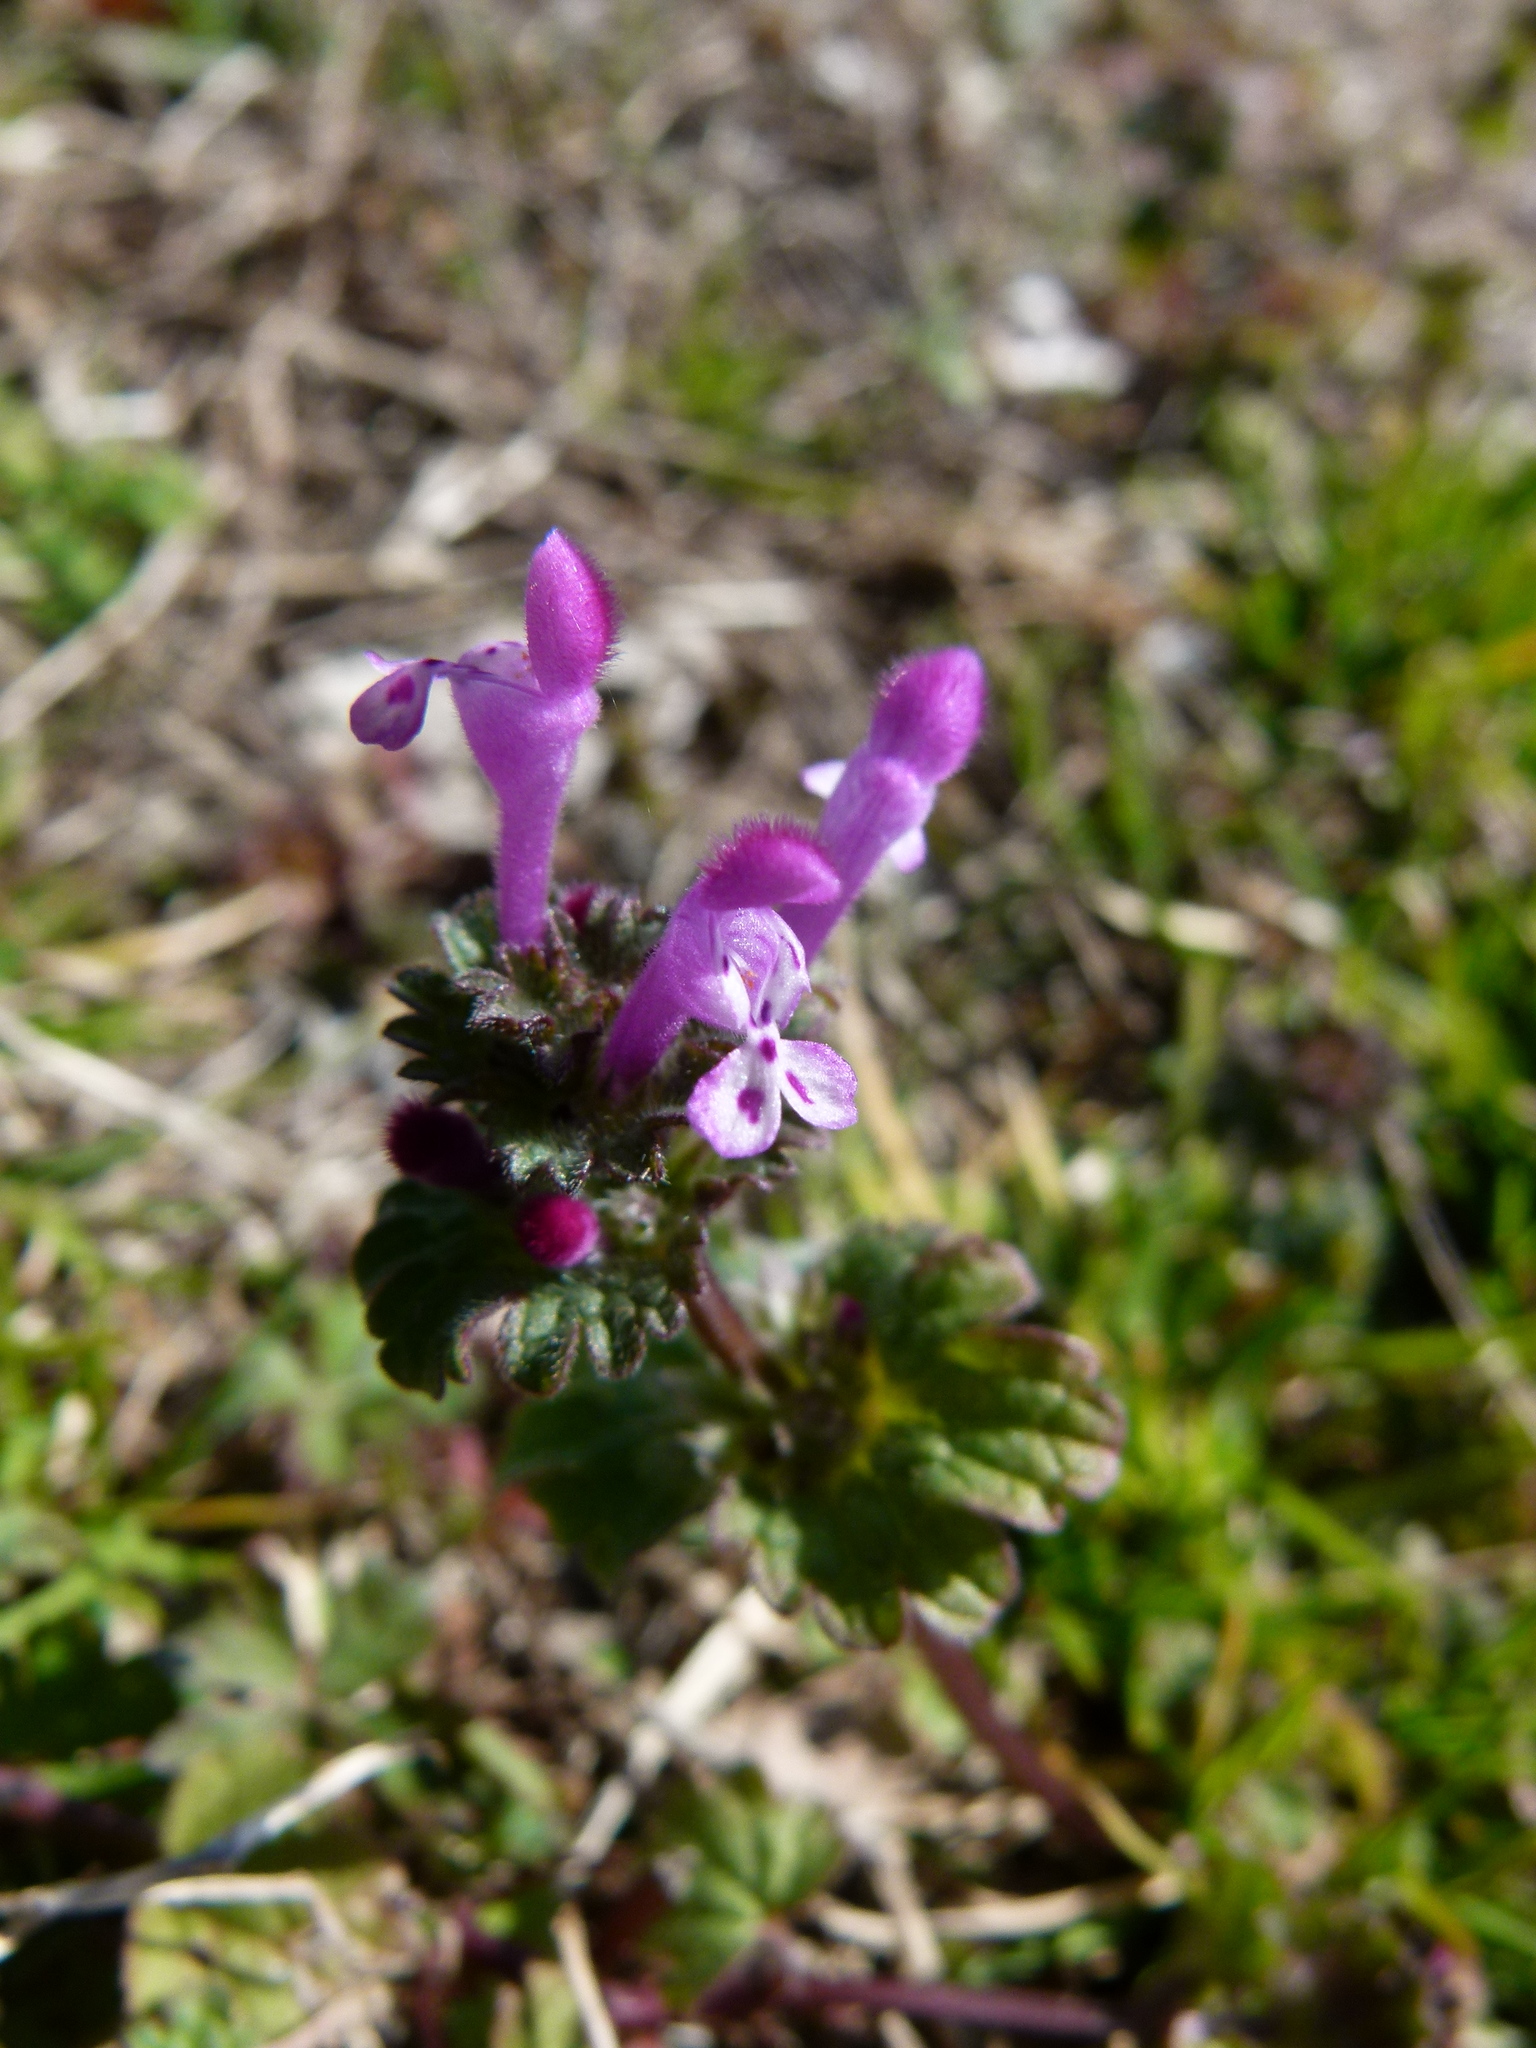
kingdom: Plantae
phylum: Tracheophyta
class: Magnoliopsida
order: Lamiales
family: Lamiaceae
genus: Lamium
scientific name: Lamium amplexicaule
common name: Henbit dead-nettle
